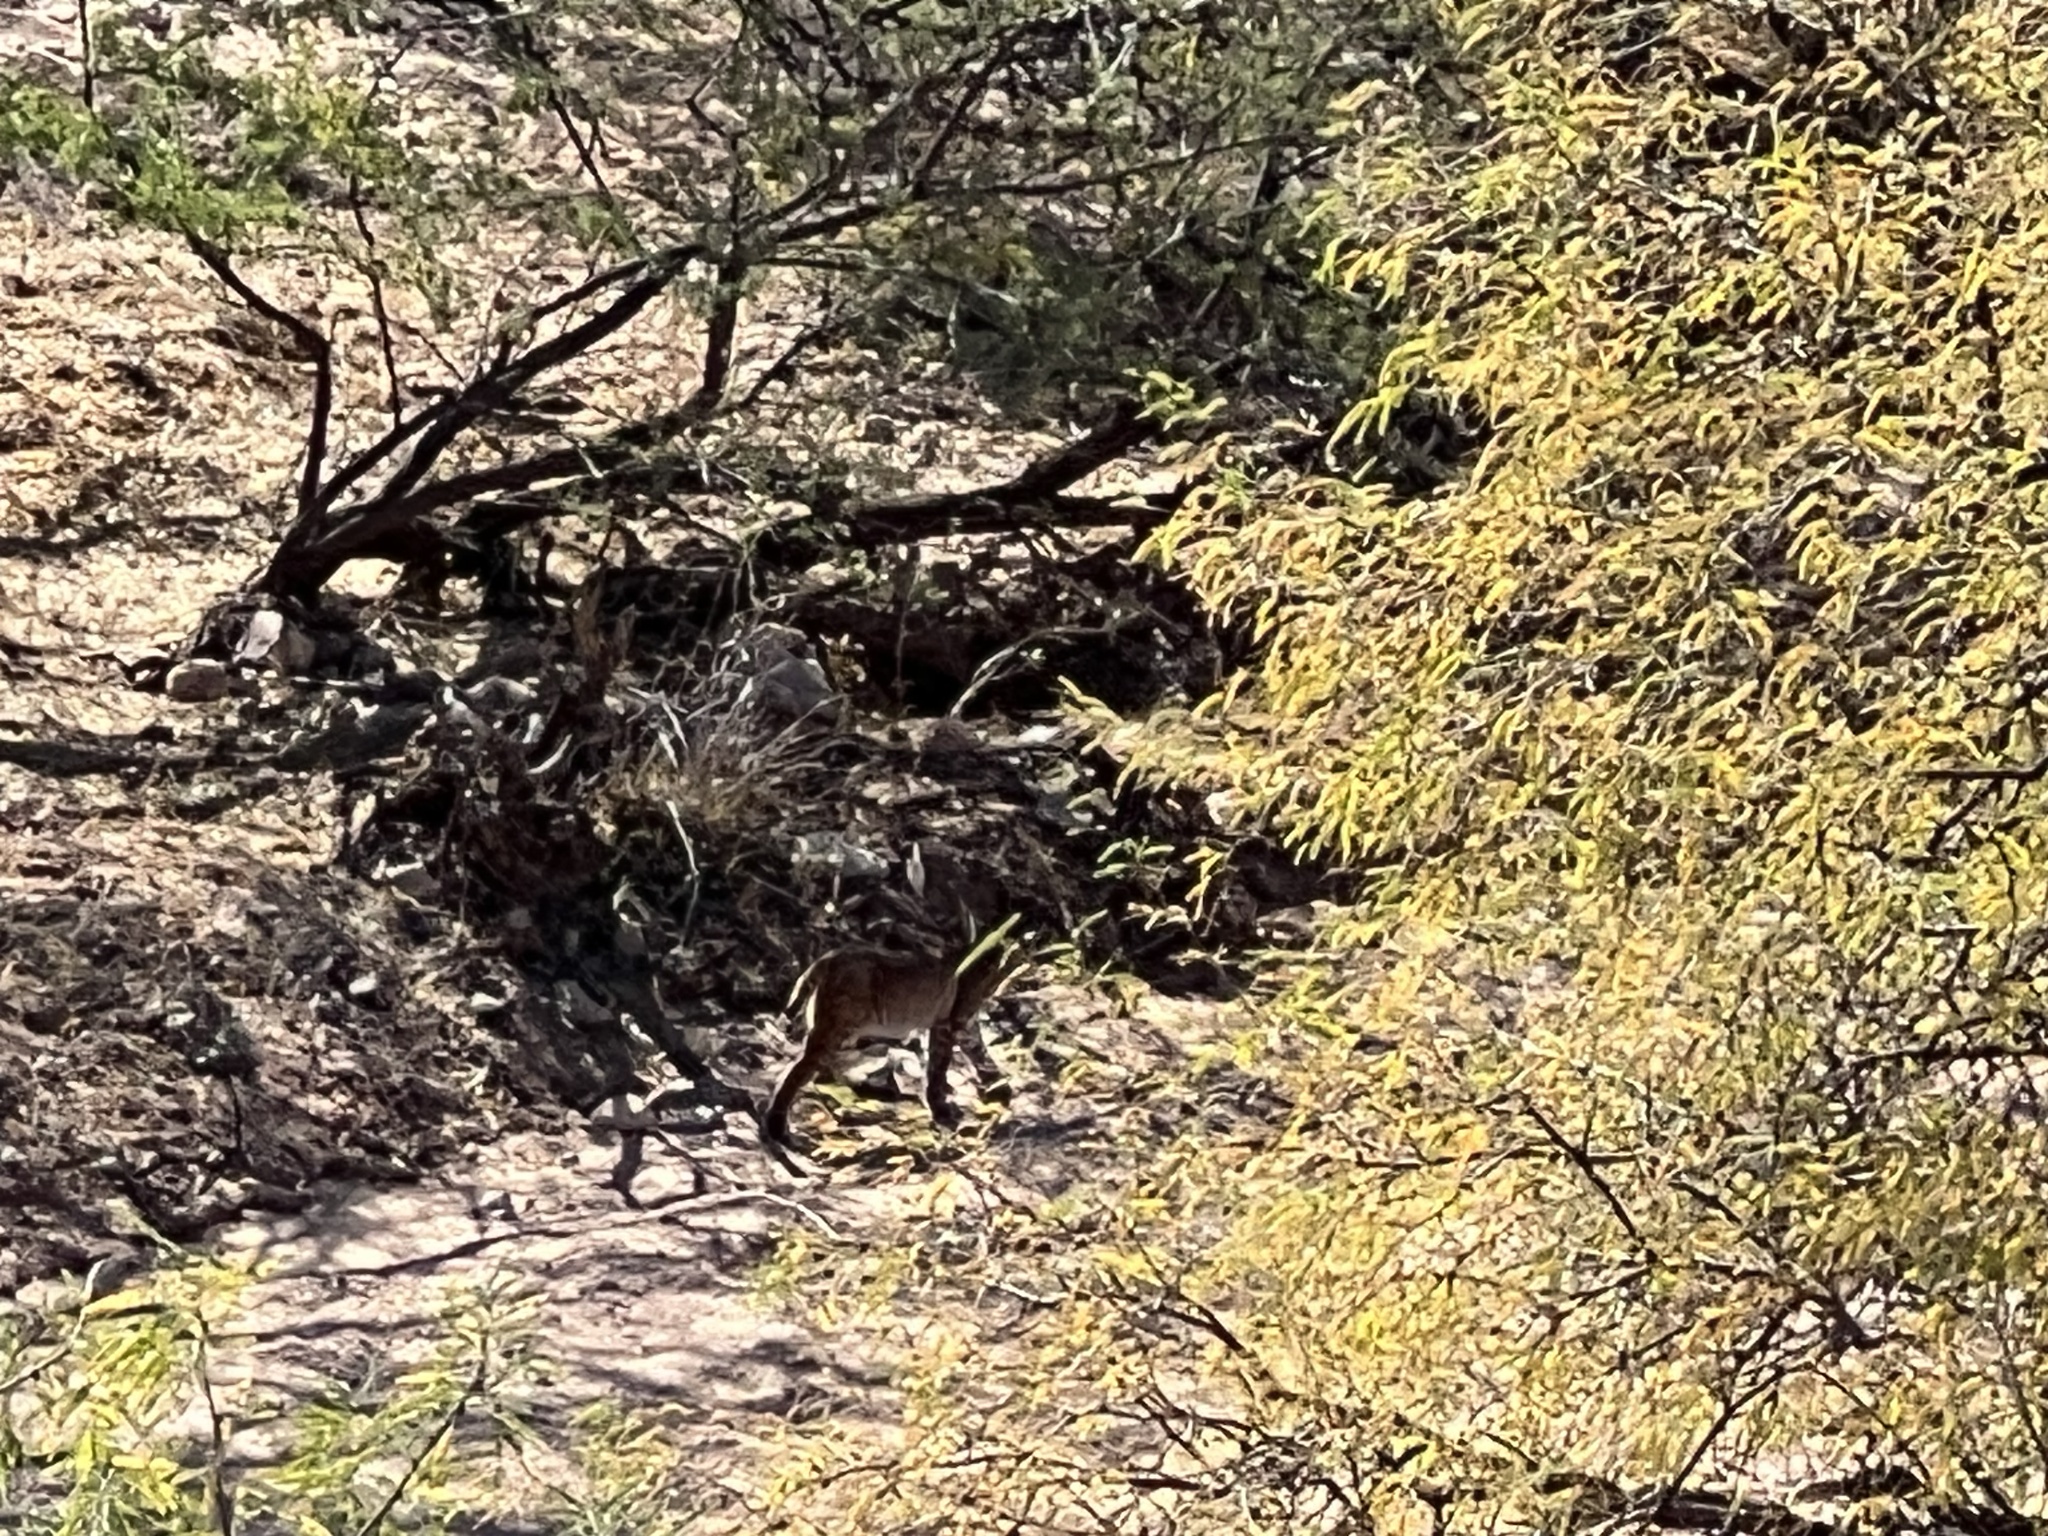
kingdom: Animalia
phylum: Chordata
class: Mammalia
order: Carnivora
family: Felidae
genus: Lynx
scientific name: Lynx rufus
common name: Bobcat
